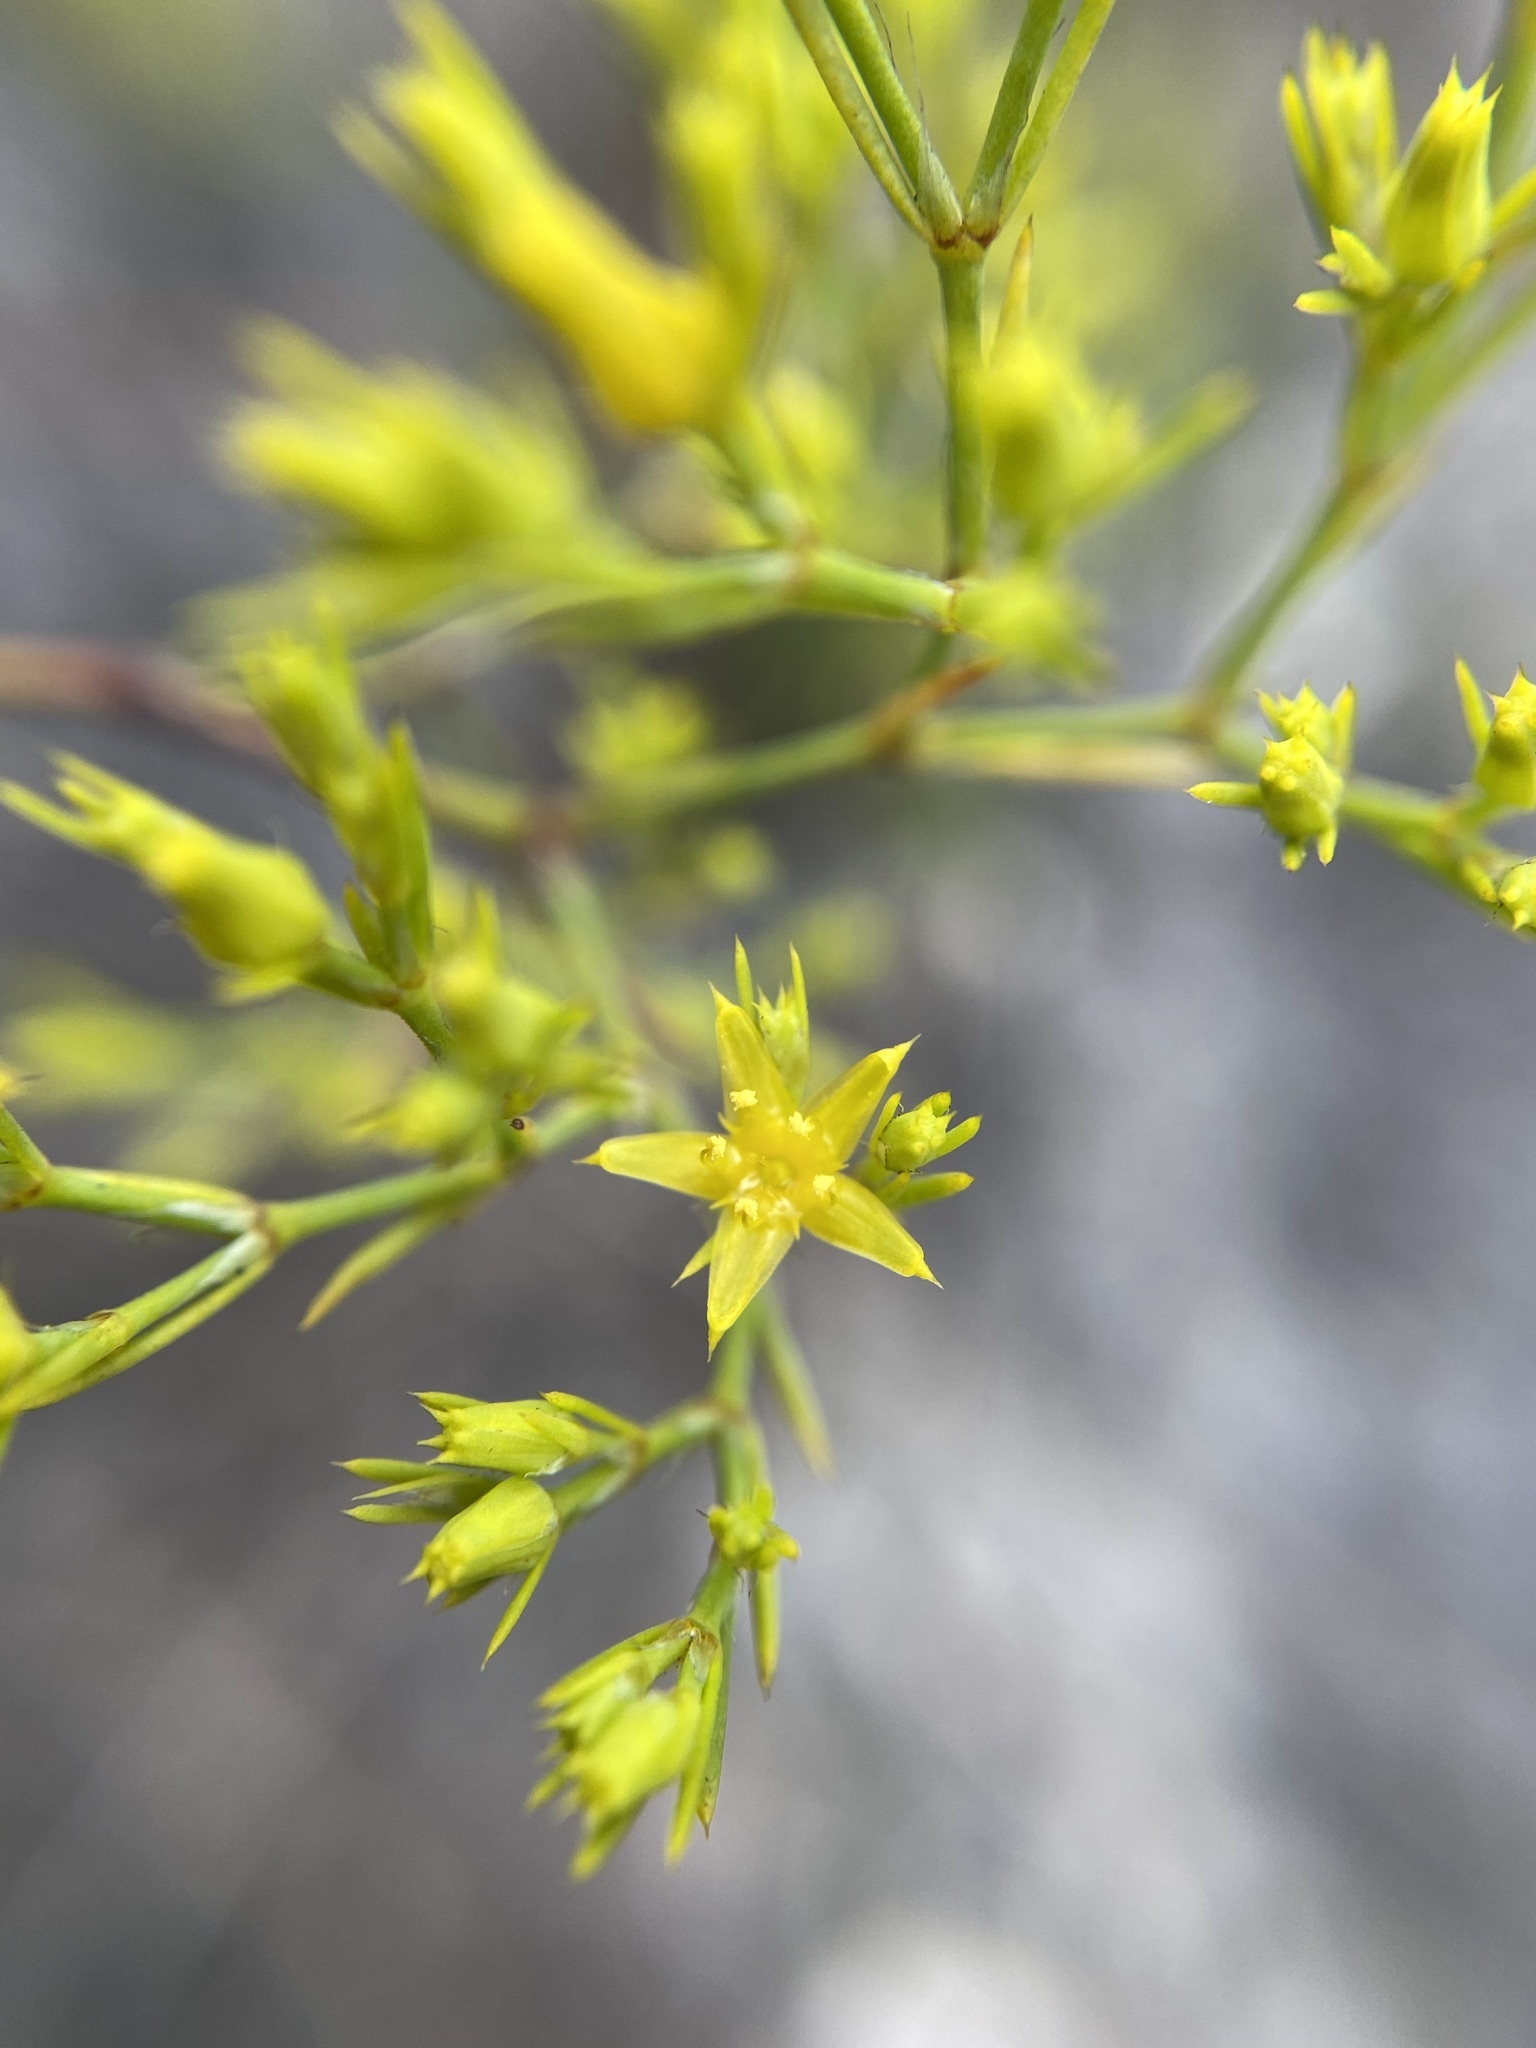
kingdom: Plantae
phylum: Tracheophyta
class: Magnoliopsida
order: Caryophyllales
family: Caryophyllaceae
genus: Paronychia
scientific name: Paronychia virginica
